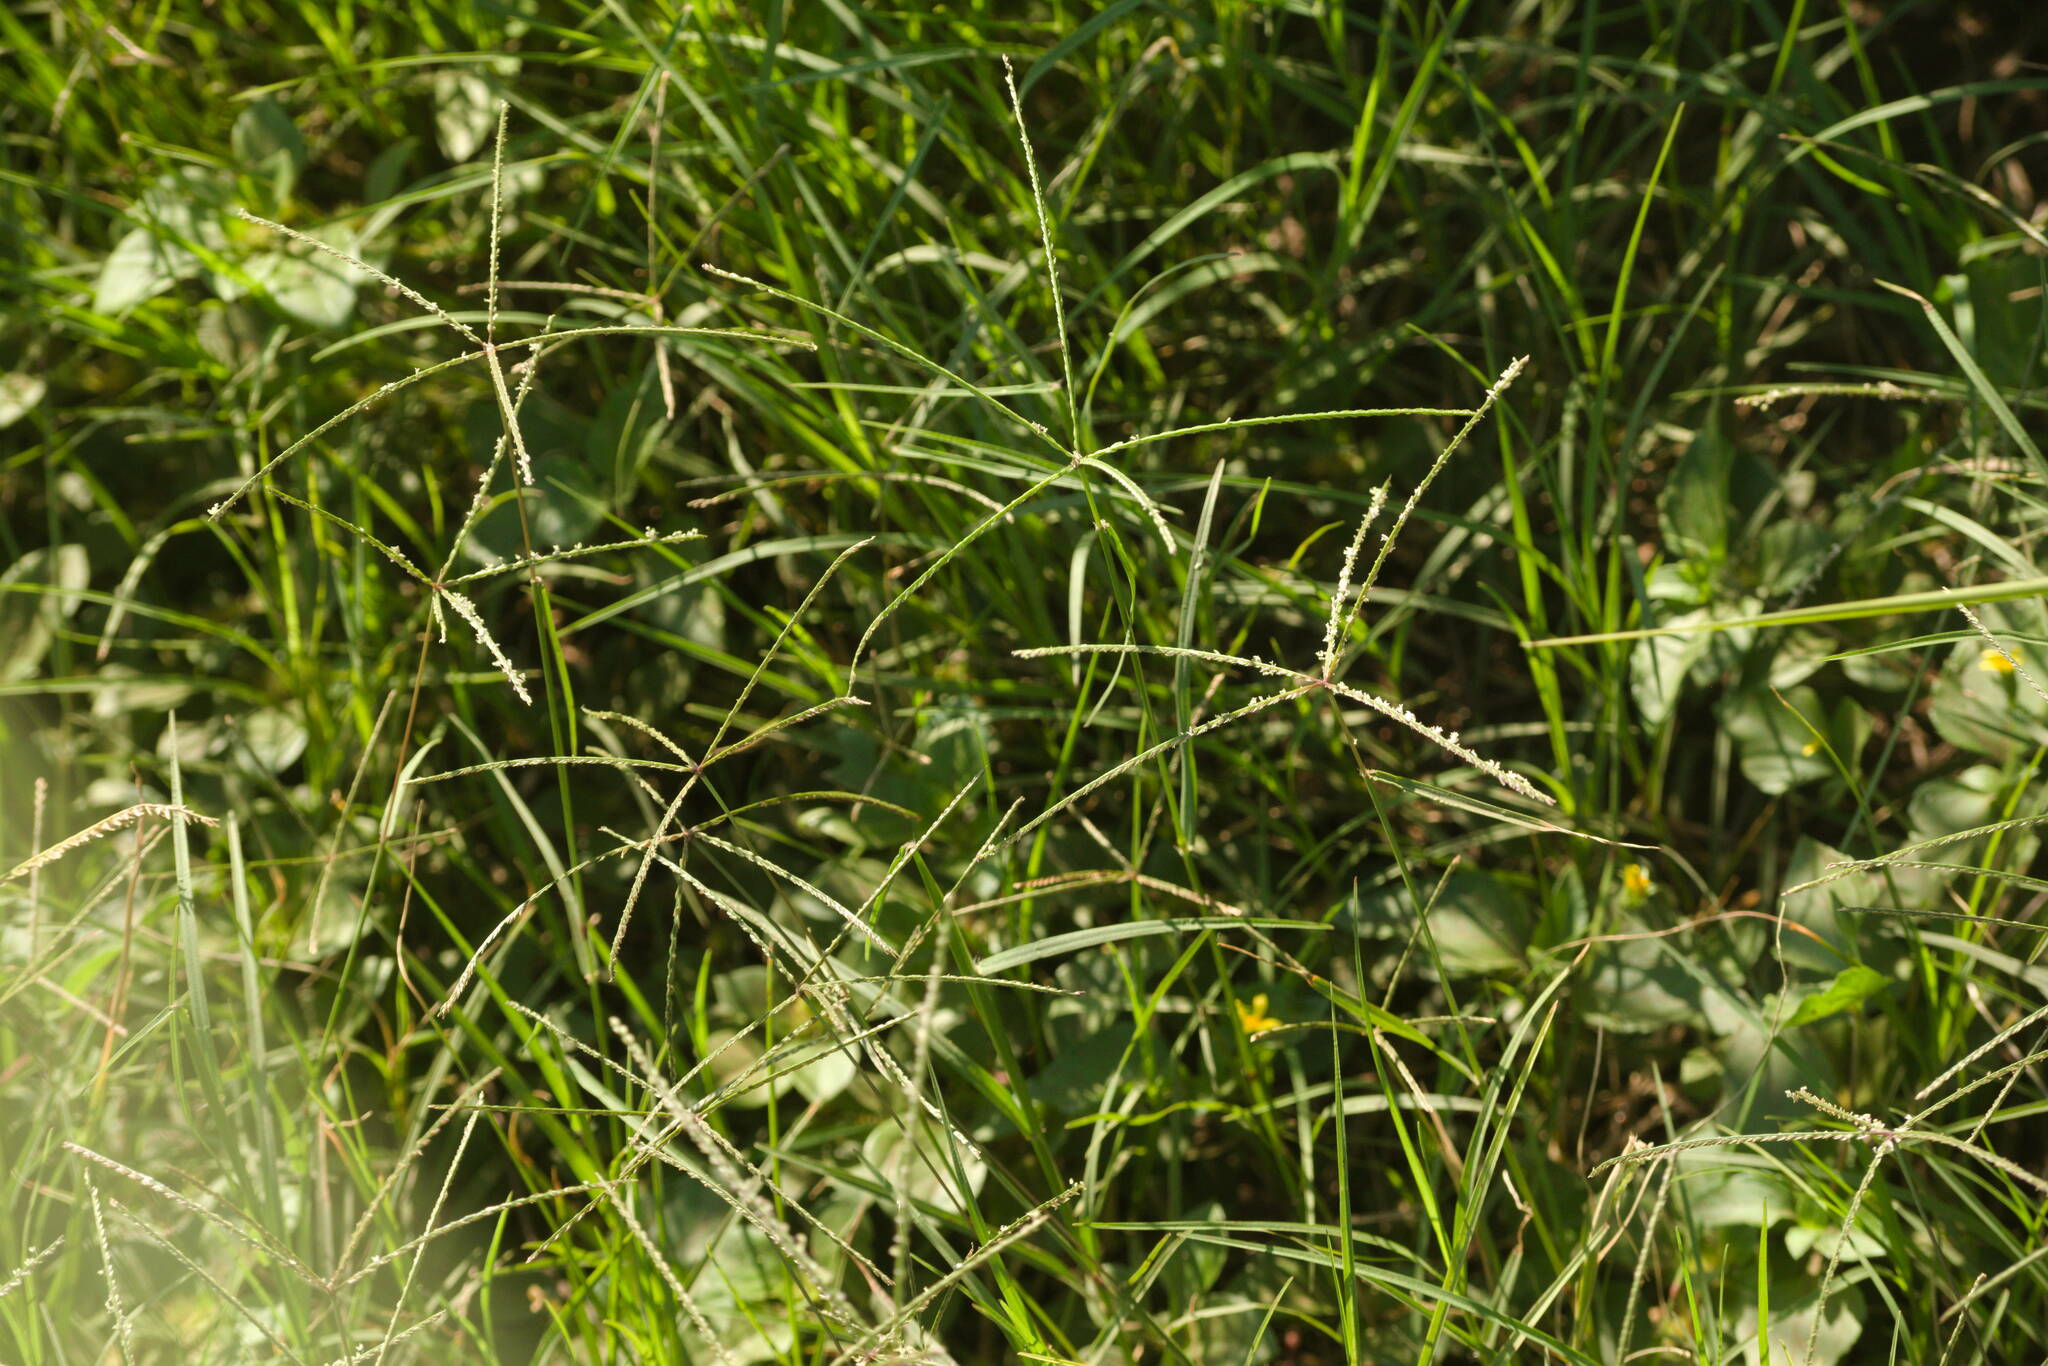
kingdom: Plantae
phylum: Tracheophyta
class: Liliopsida
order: Poales
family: Poaceae
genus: Cynodon
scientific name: Cynodon dactylon
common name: Bermuda grass
